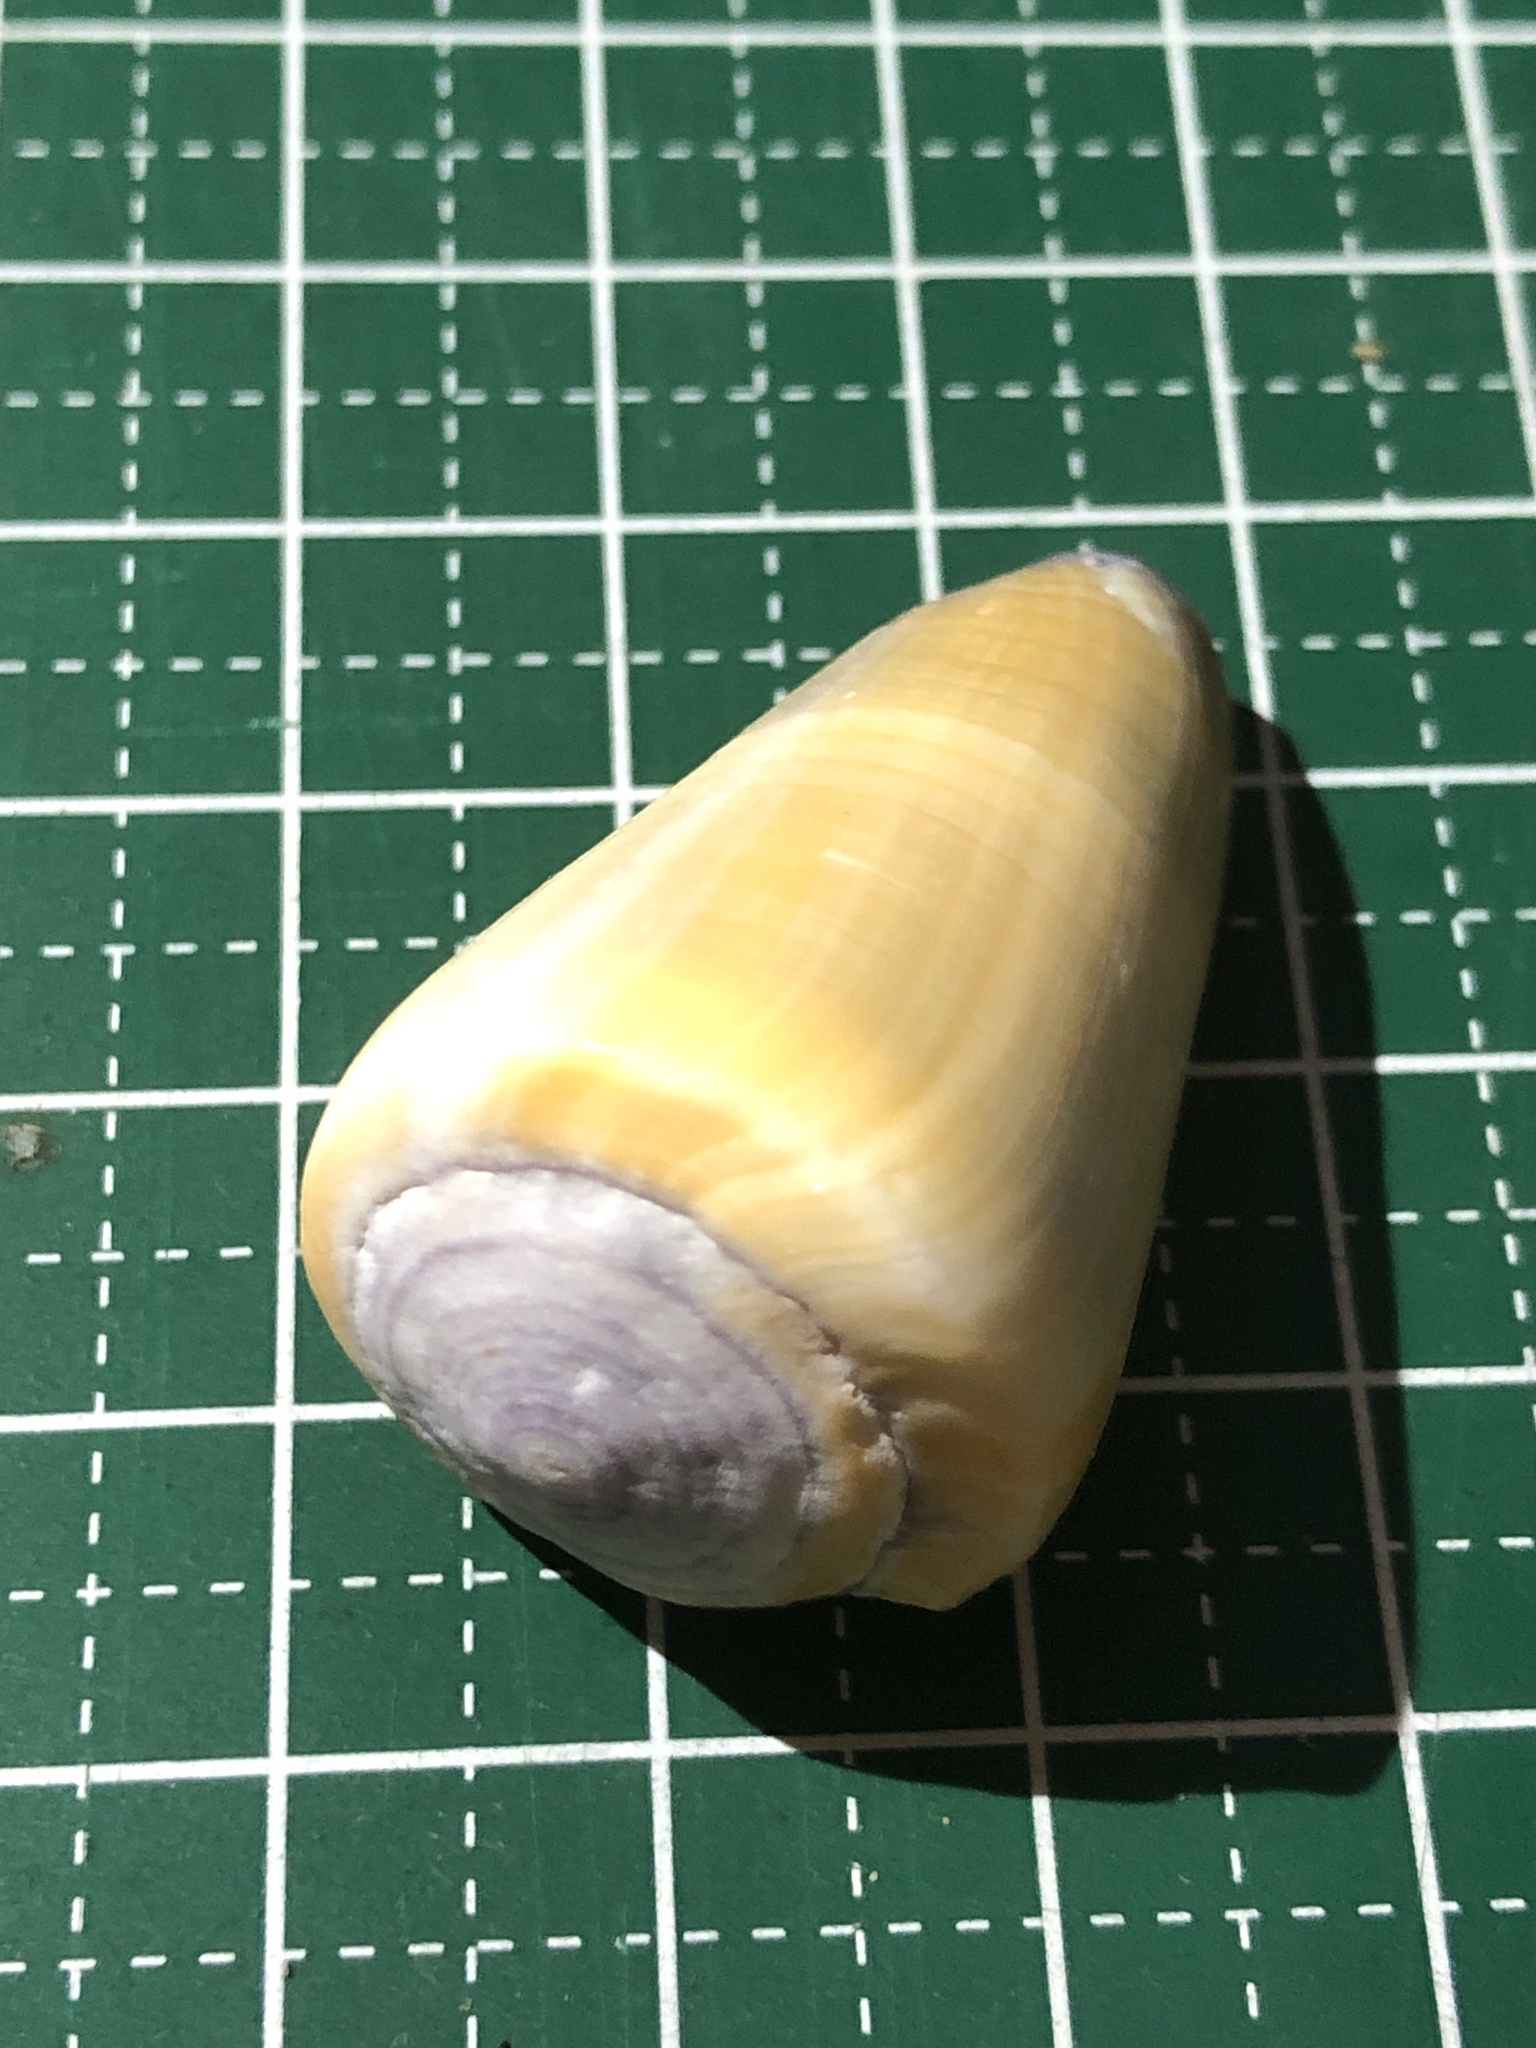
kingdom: Animalia
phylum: Mollusca
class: Gastropoda
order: Neogastropoda
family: Conidae
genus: Conus
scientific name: Conus flavidus
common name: Golden-yellow cone
